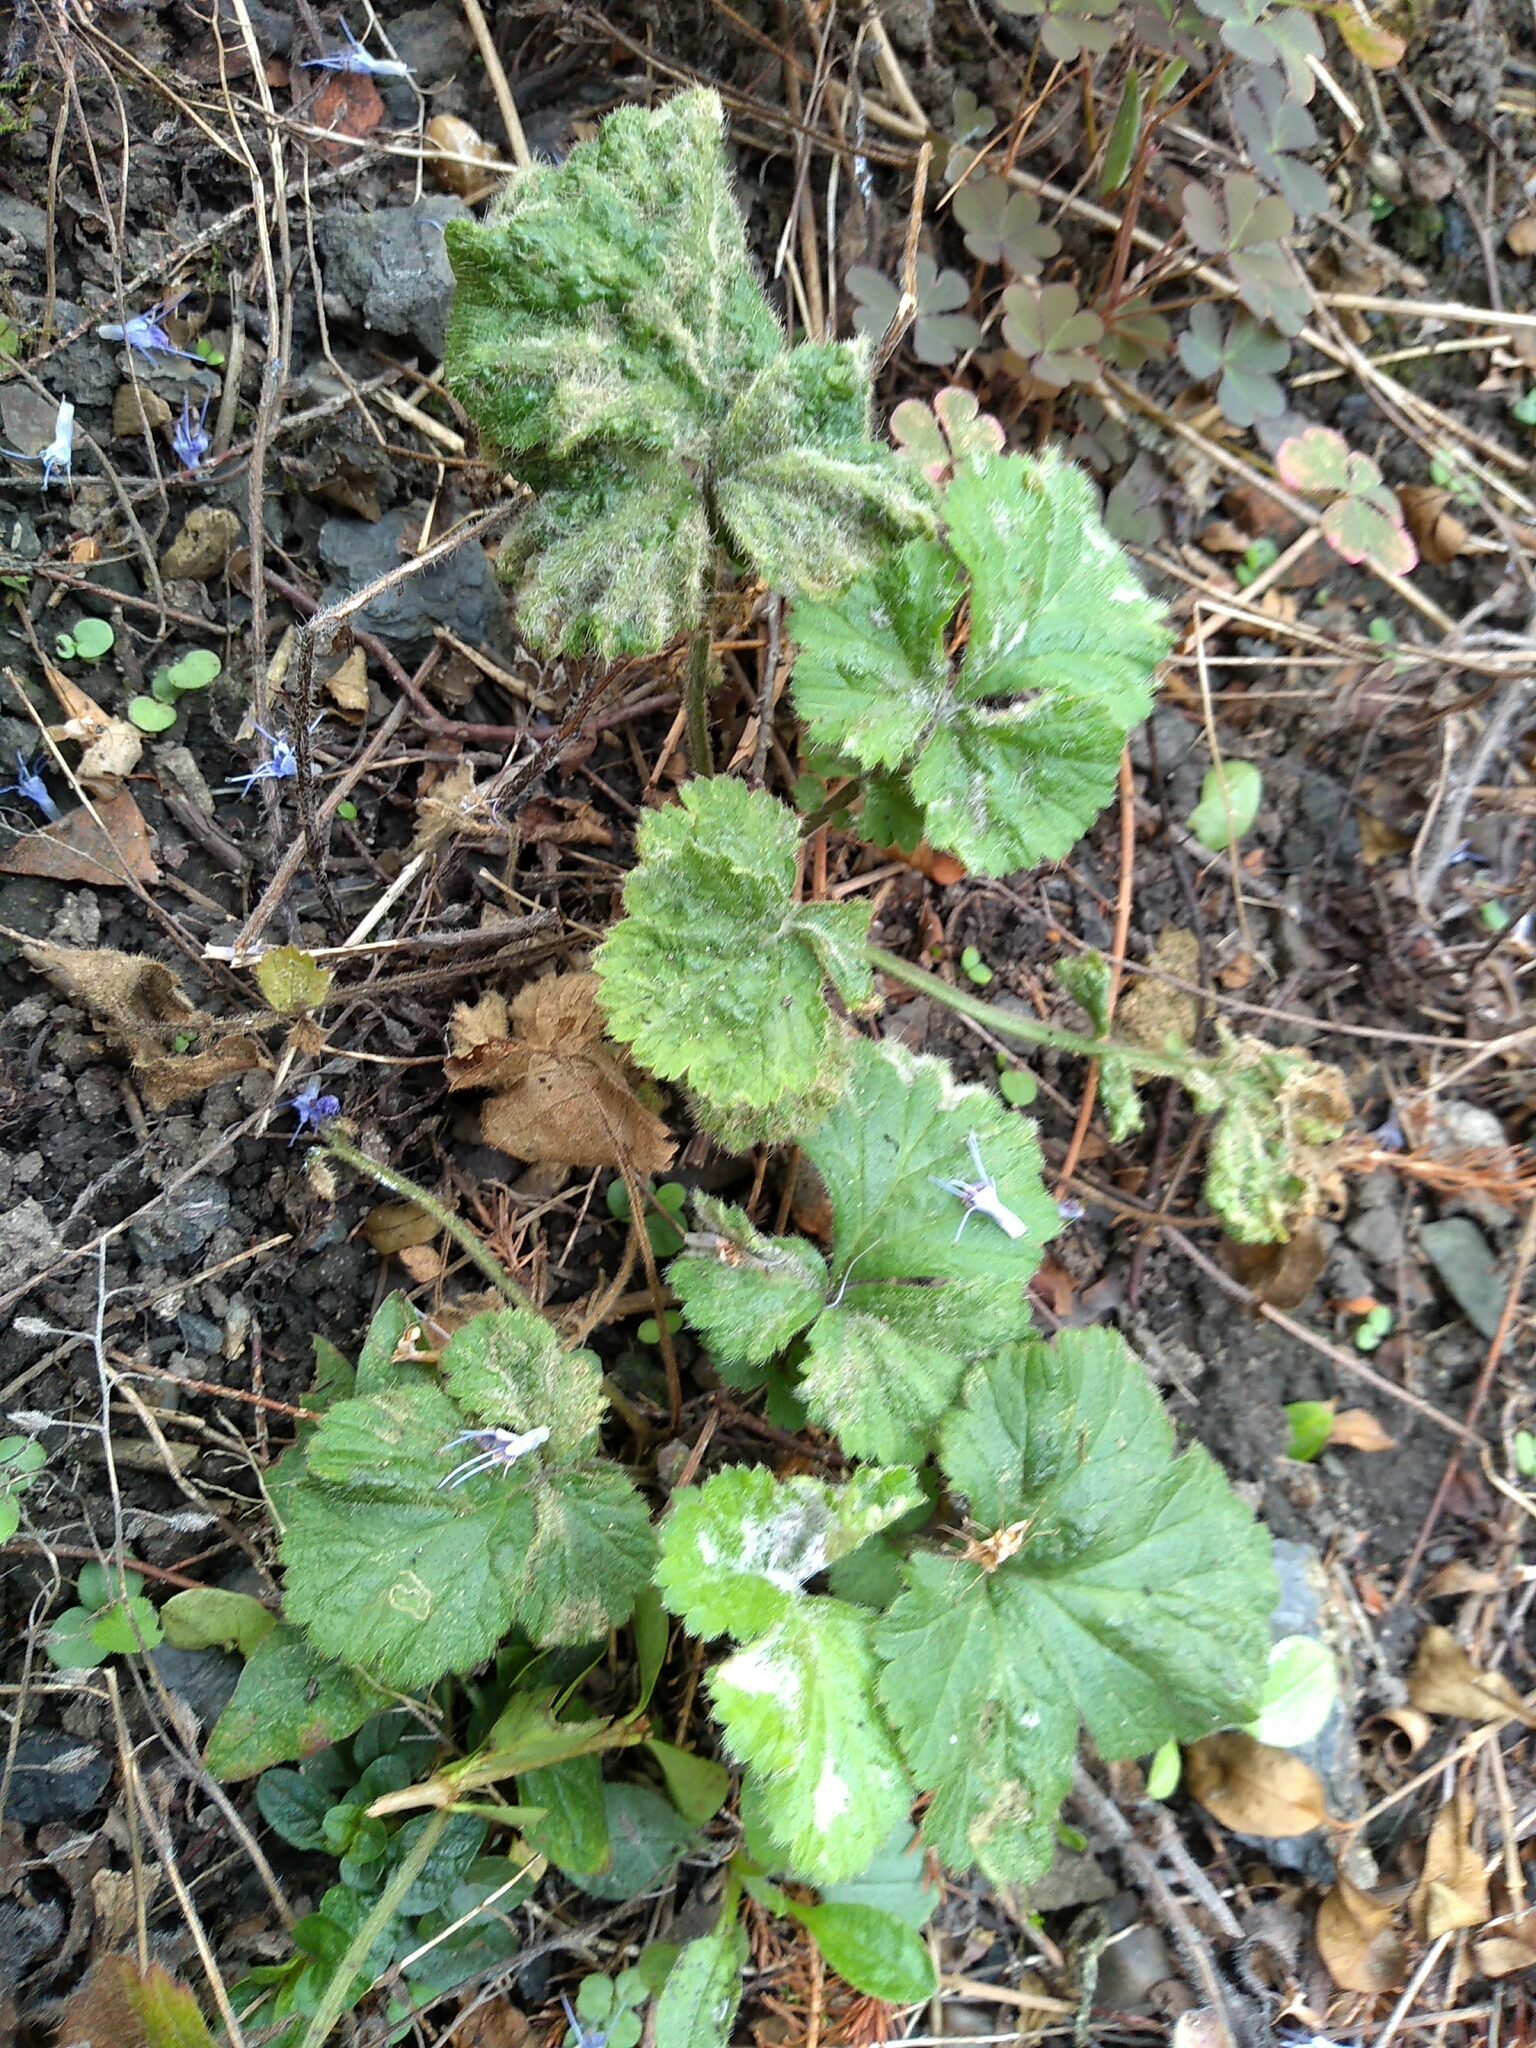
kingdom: Animalia
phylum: Arthropoda
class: Arachnida
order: Trombidiformes
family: Eriophyidae
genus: Cecidophyes
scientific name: Cecidophyes nudus
